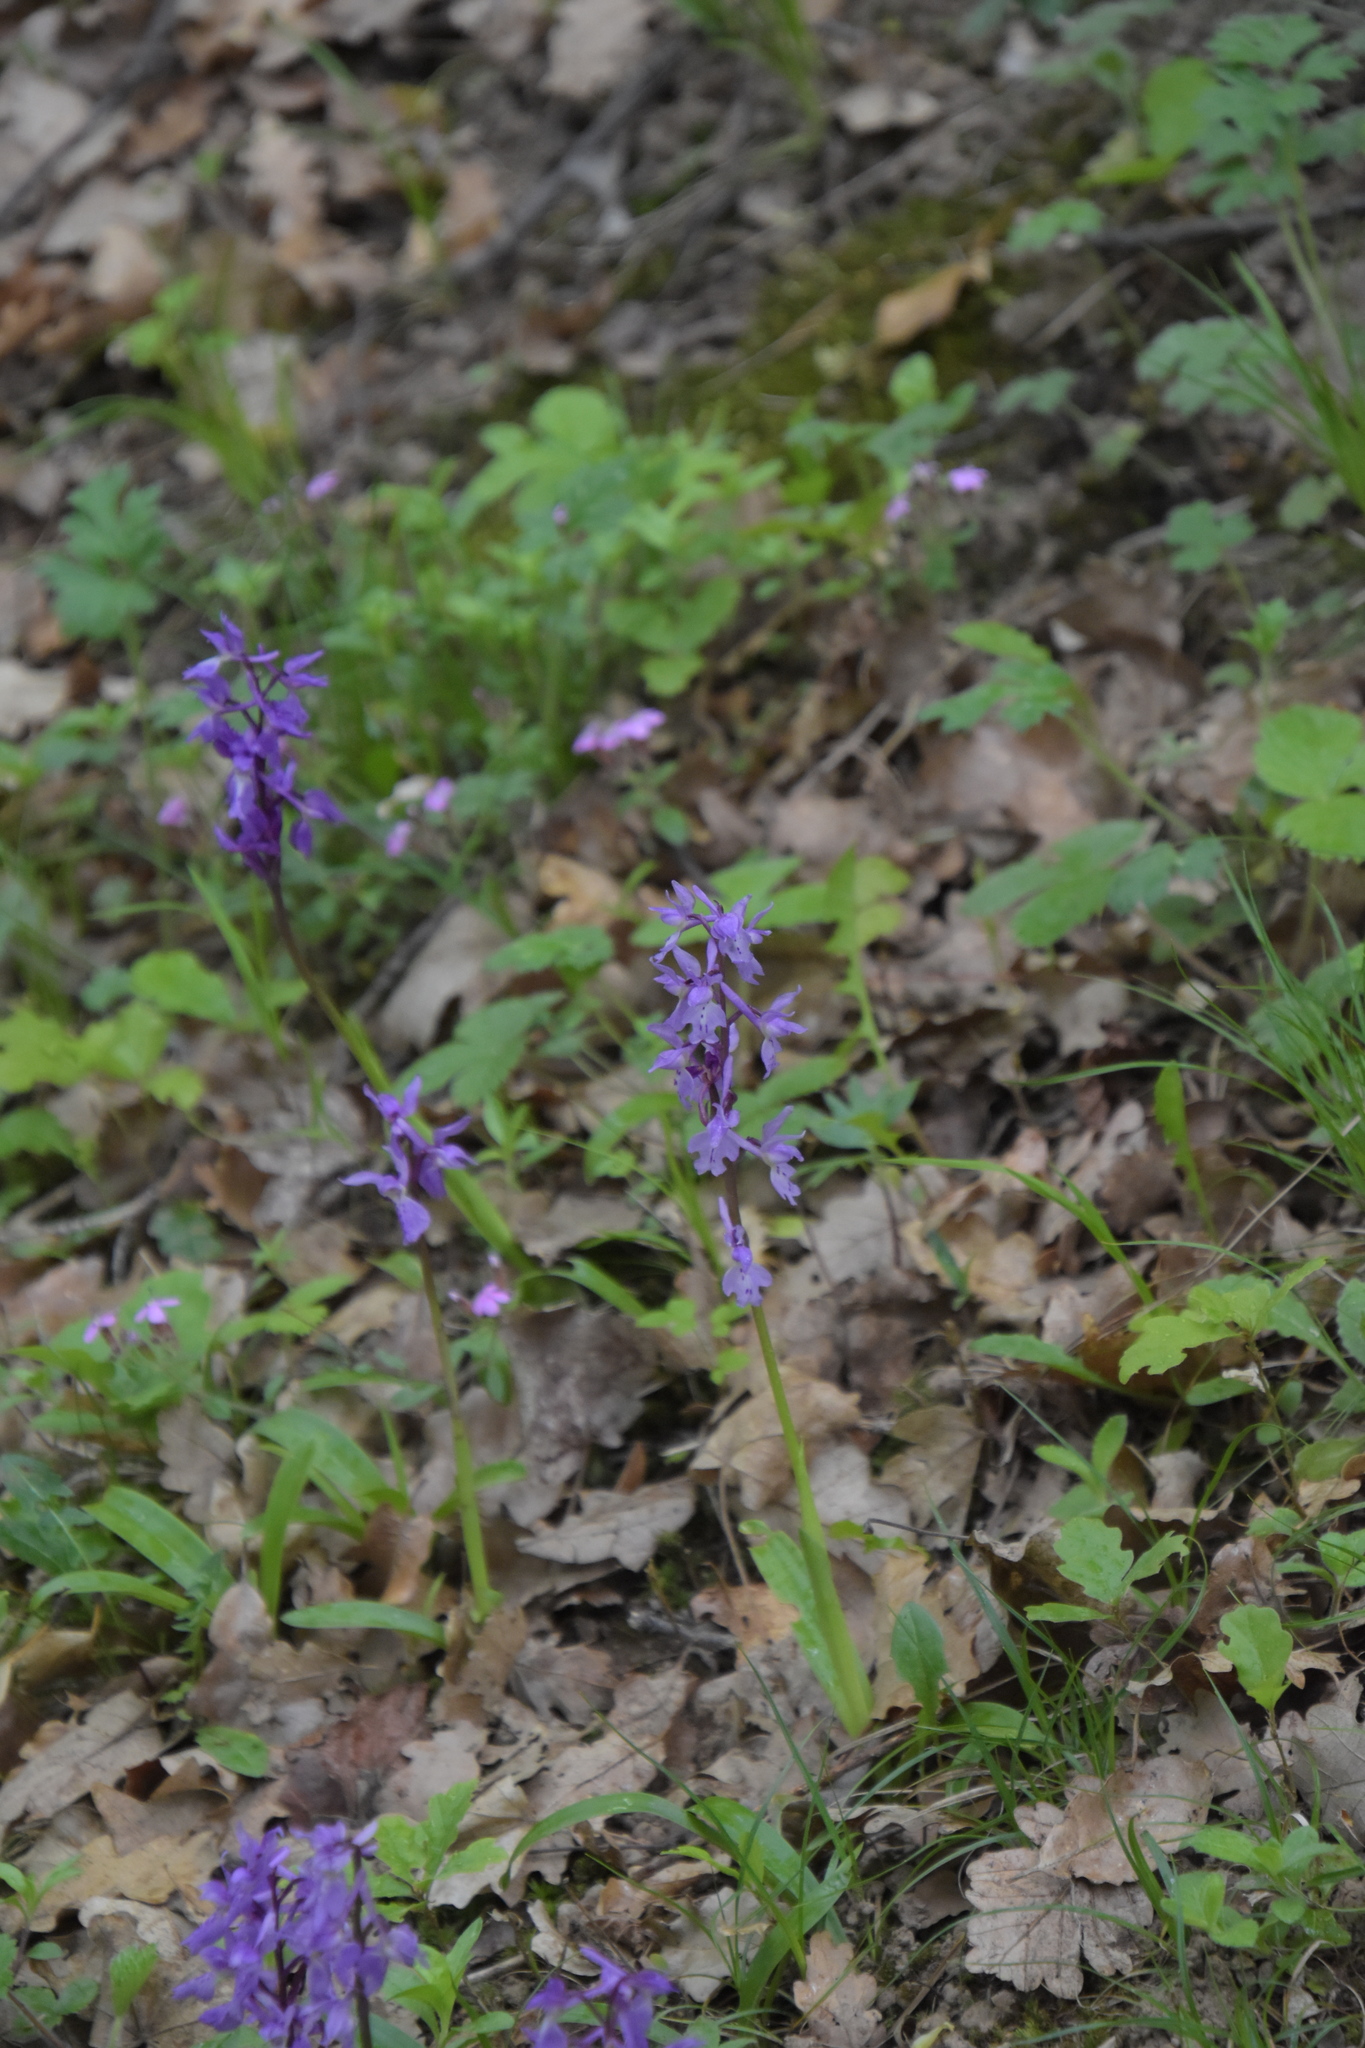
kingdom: Plantae
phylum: Tracheophyta
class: Liliopsida
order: Asparagales
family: Orchidaceae
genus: Orchis
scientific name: Orchis mascula
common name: Early-purple orchid
